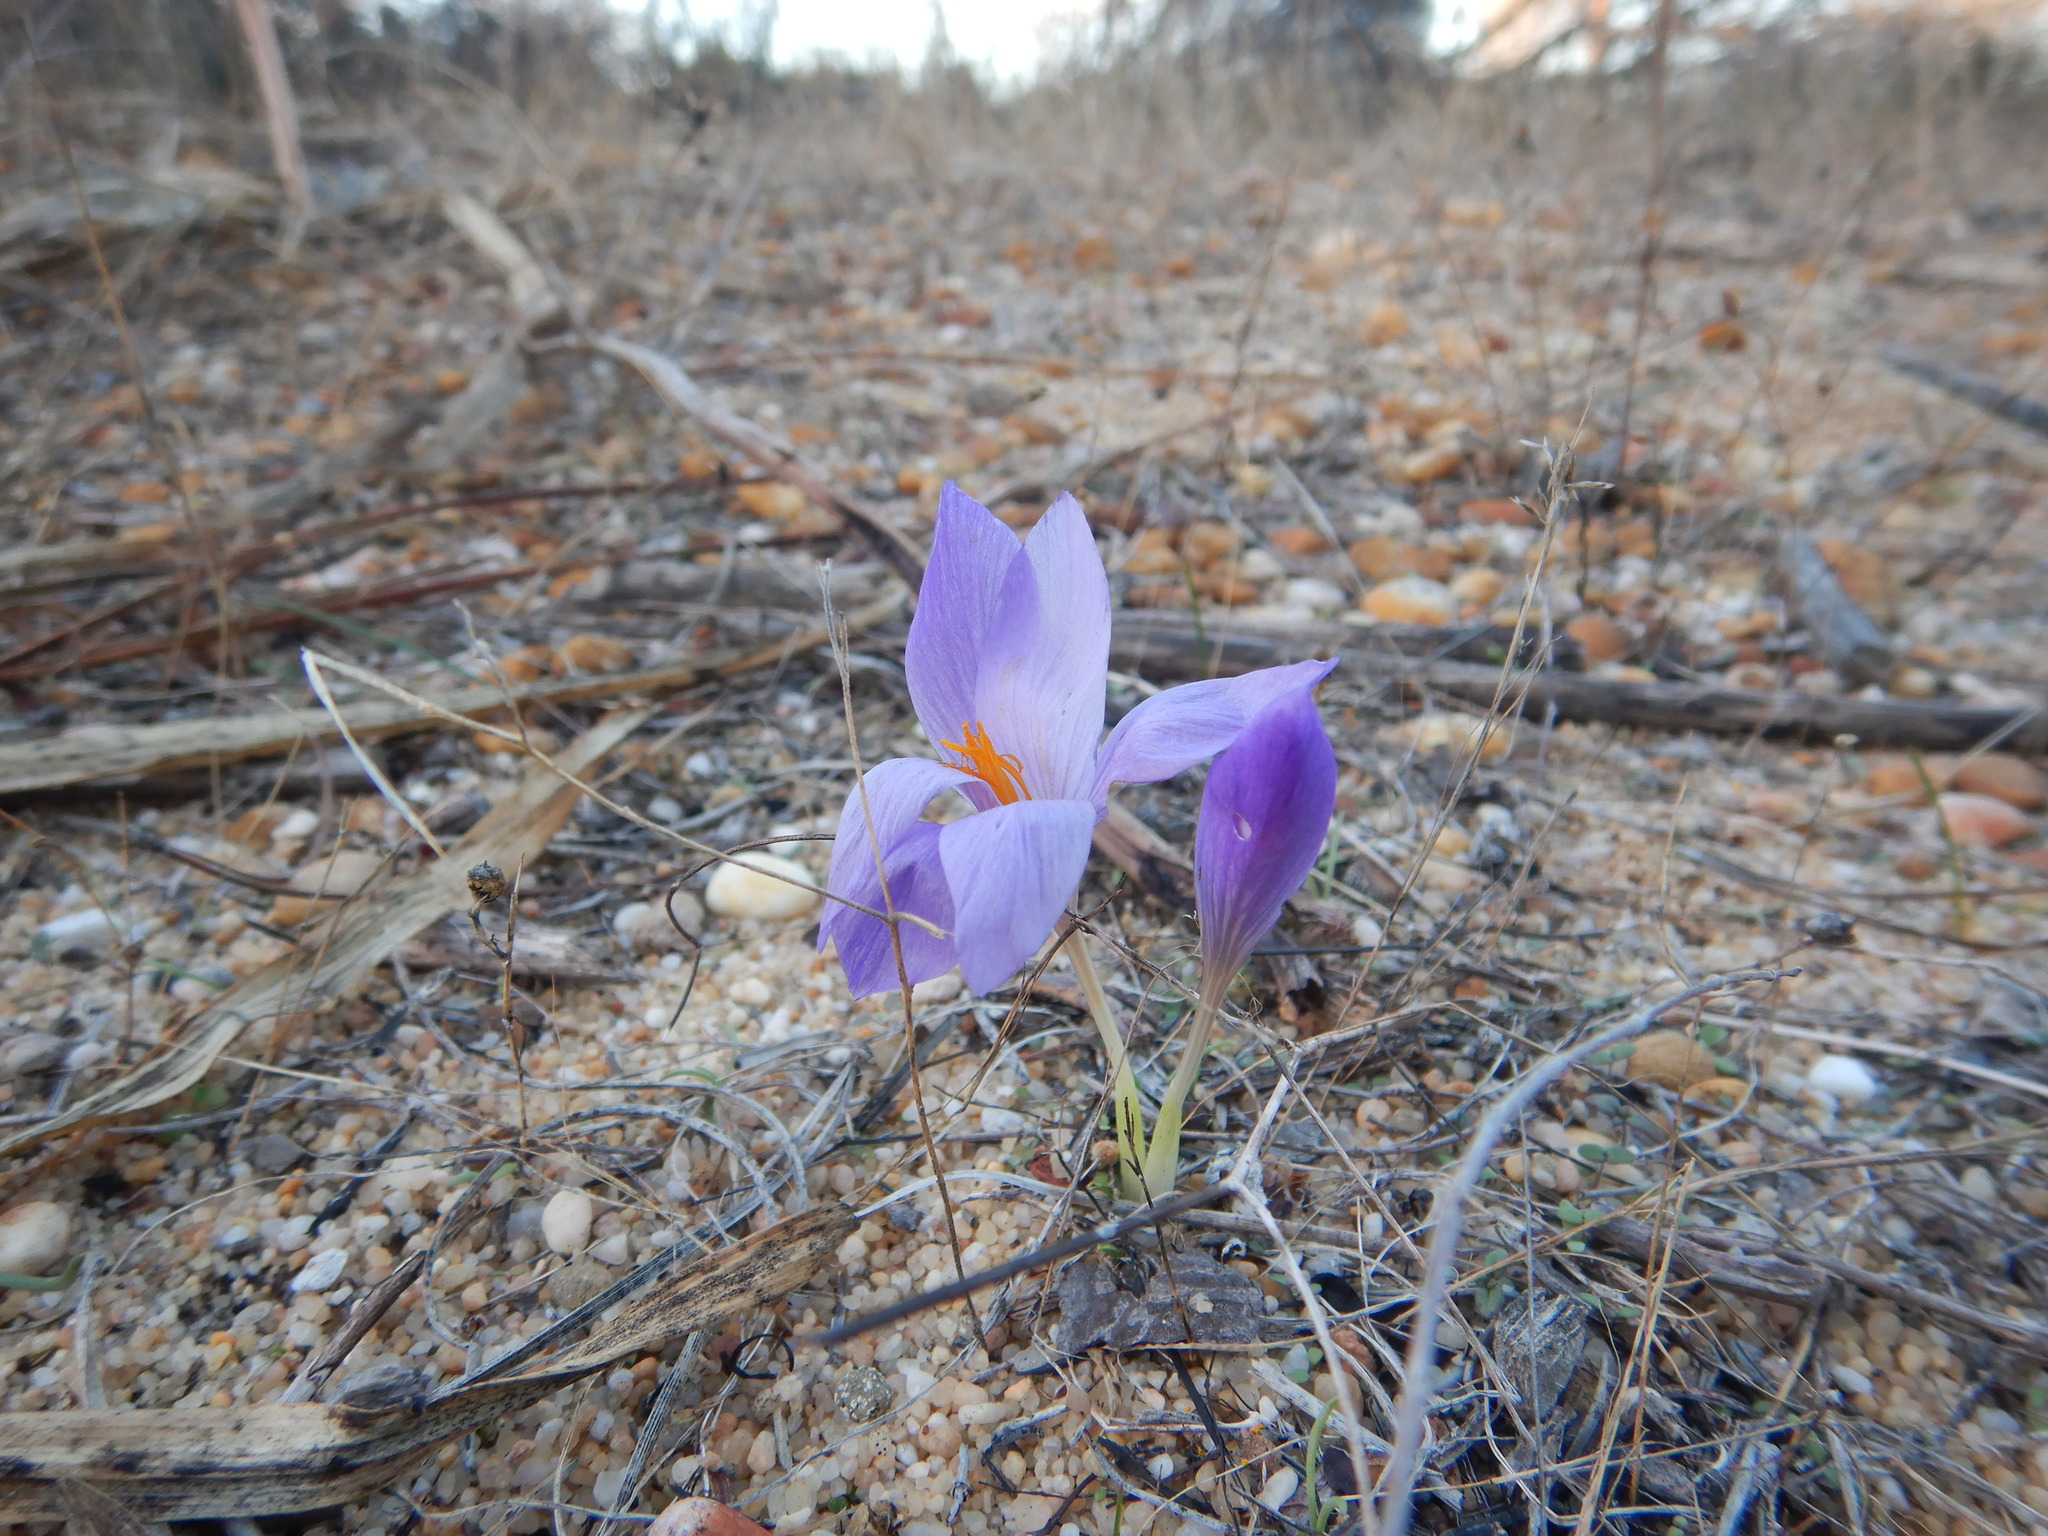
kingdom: Plantae
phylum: Tracheophyta
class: Liliopsida
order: Asparagales
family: Iridaceae
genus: Crocus
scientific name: Crocus serotinus
